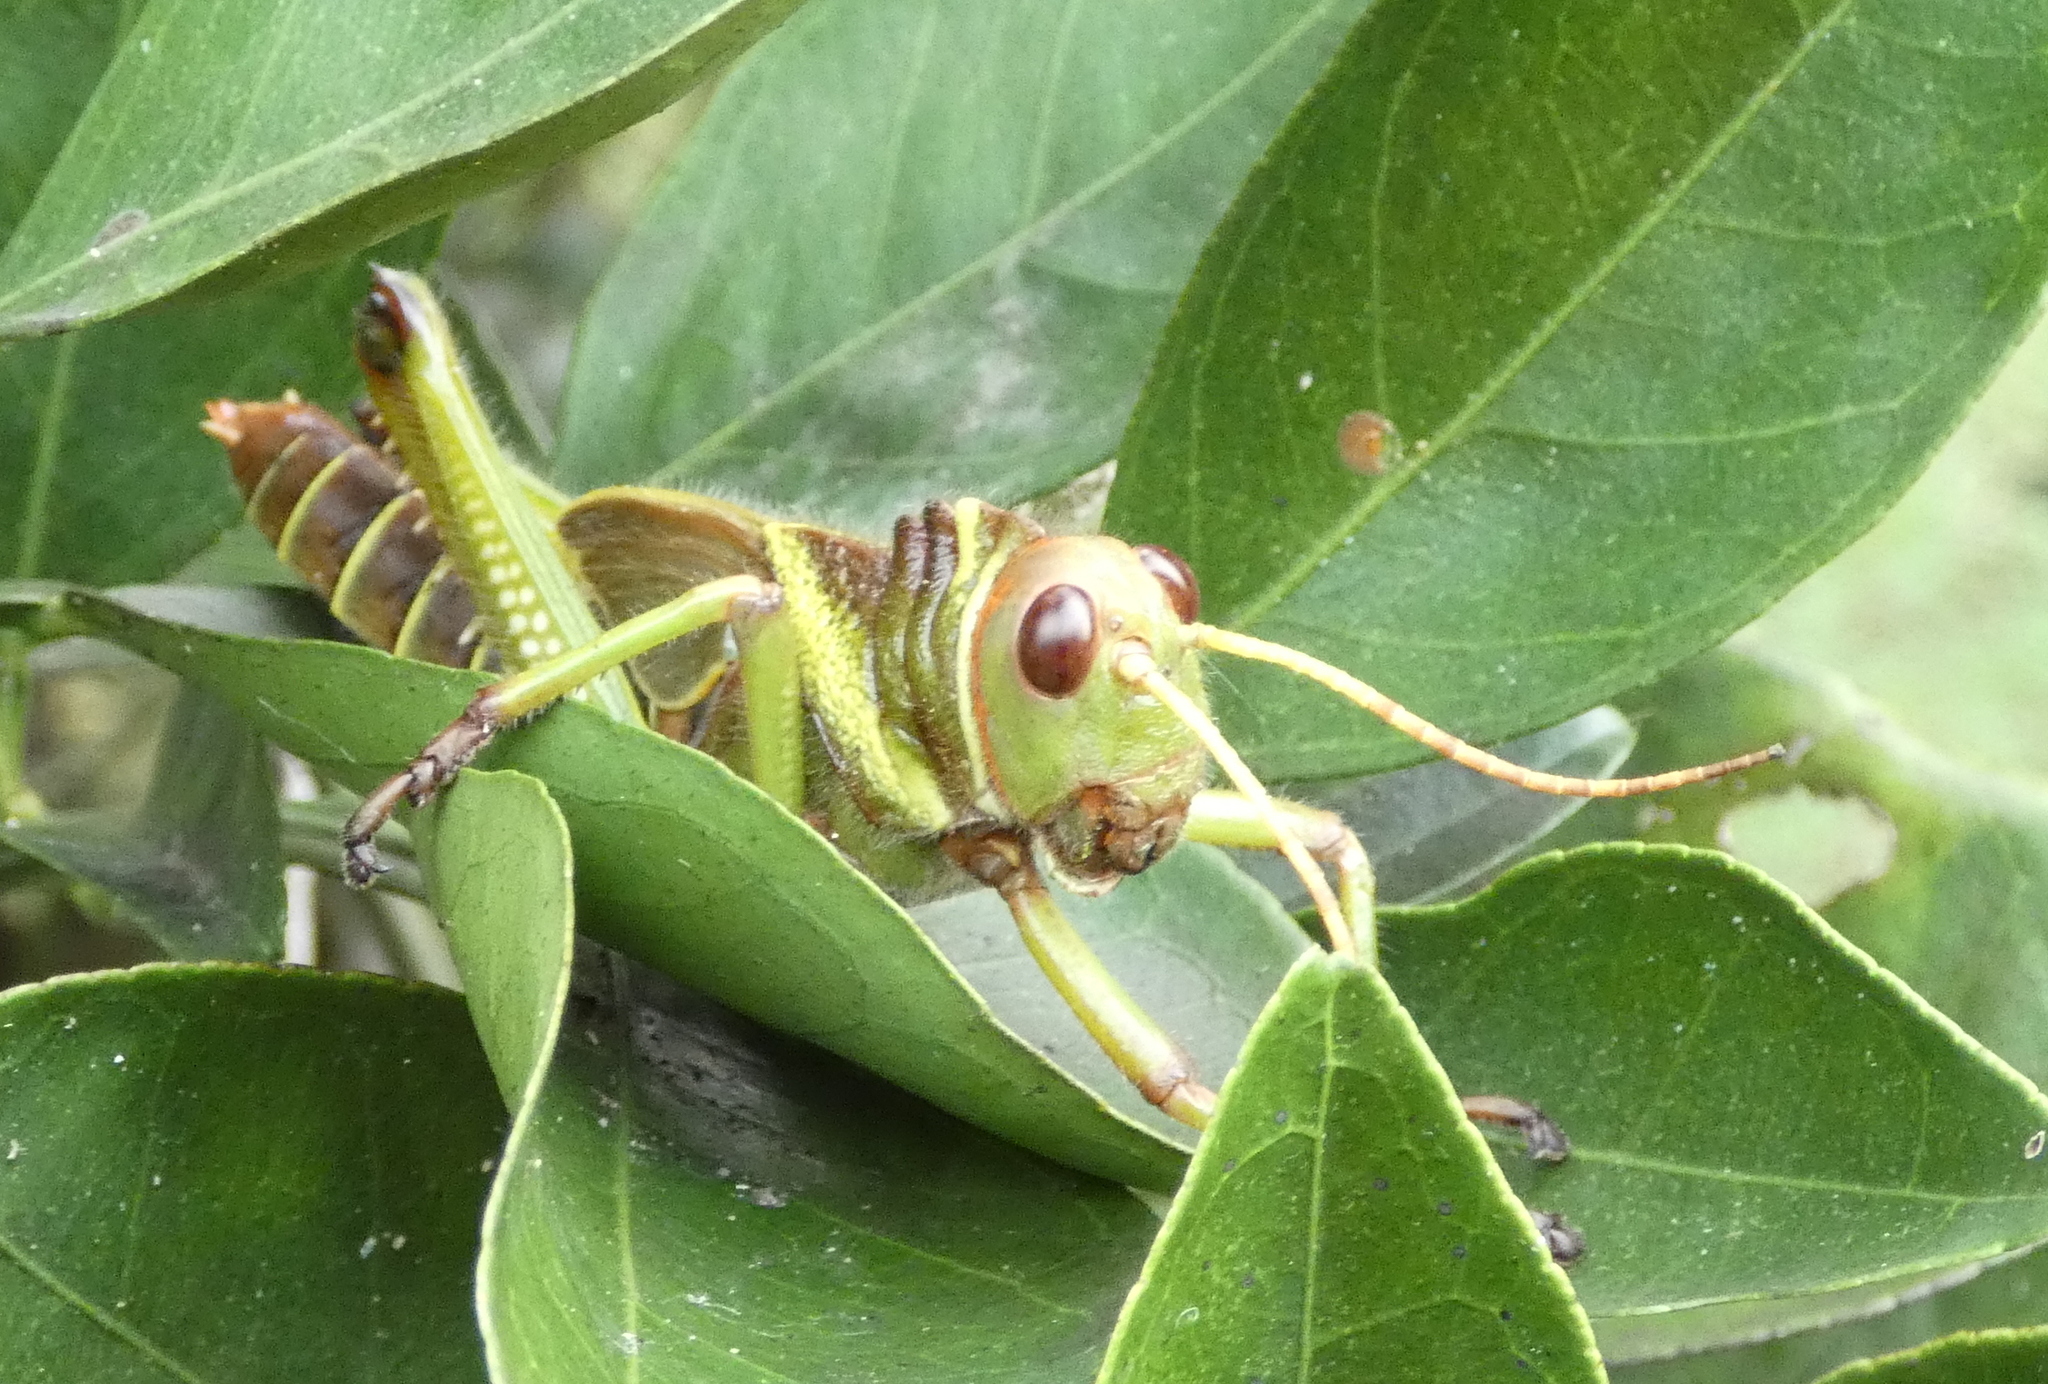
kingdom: Animalia
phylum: Arthropoda
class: Insecta
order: Orthoptera
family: Romaleidae
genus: Tropidacris
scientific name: Tropidacris collaris
